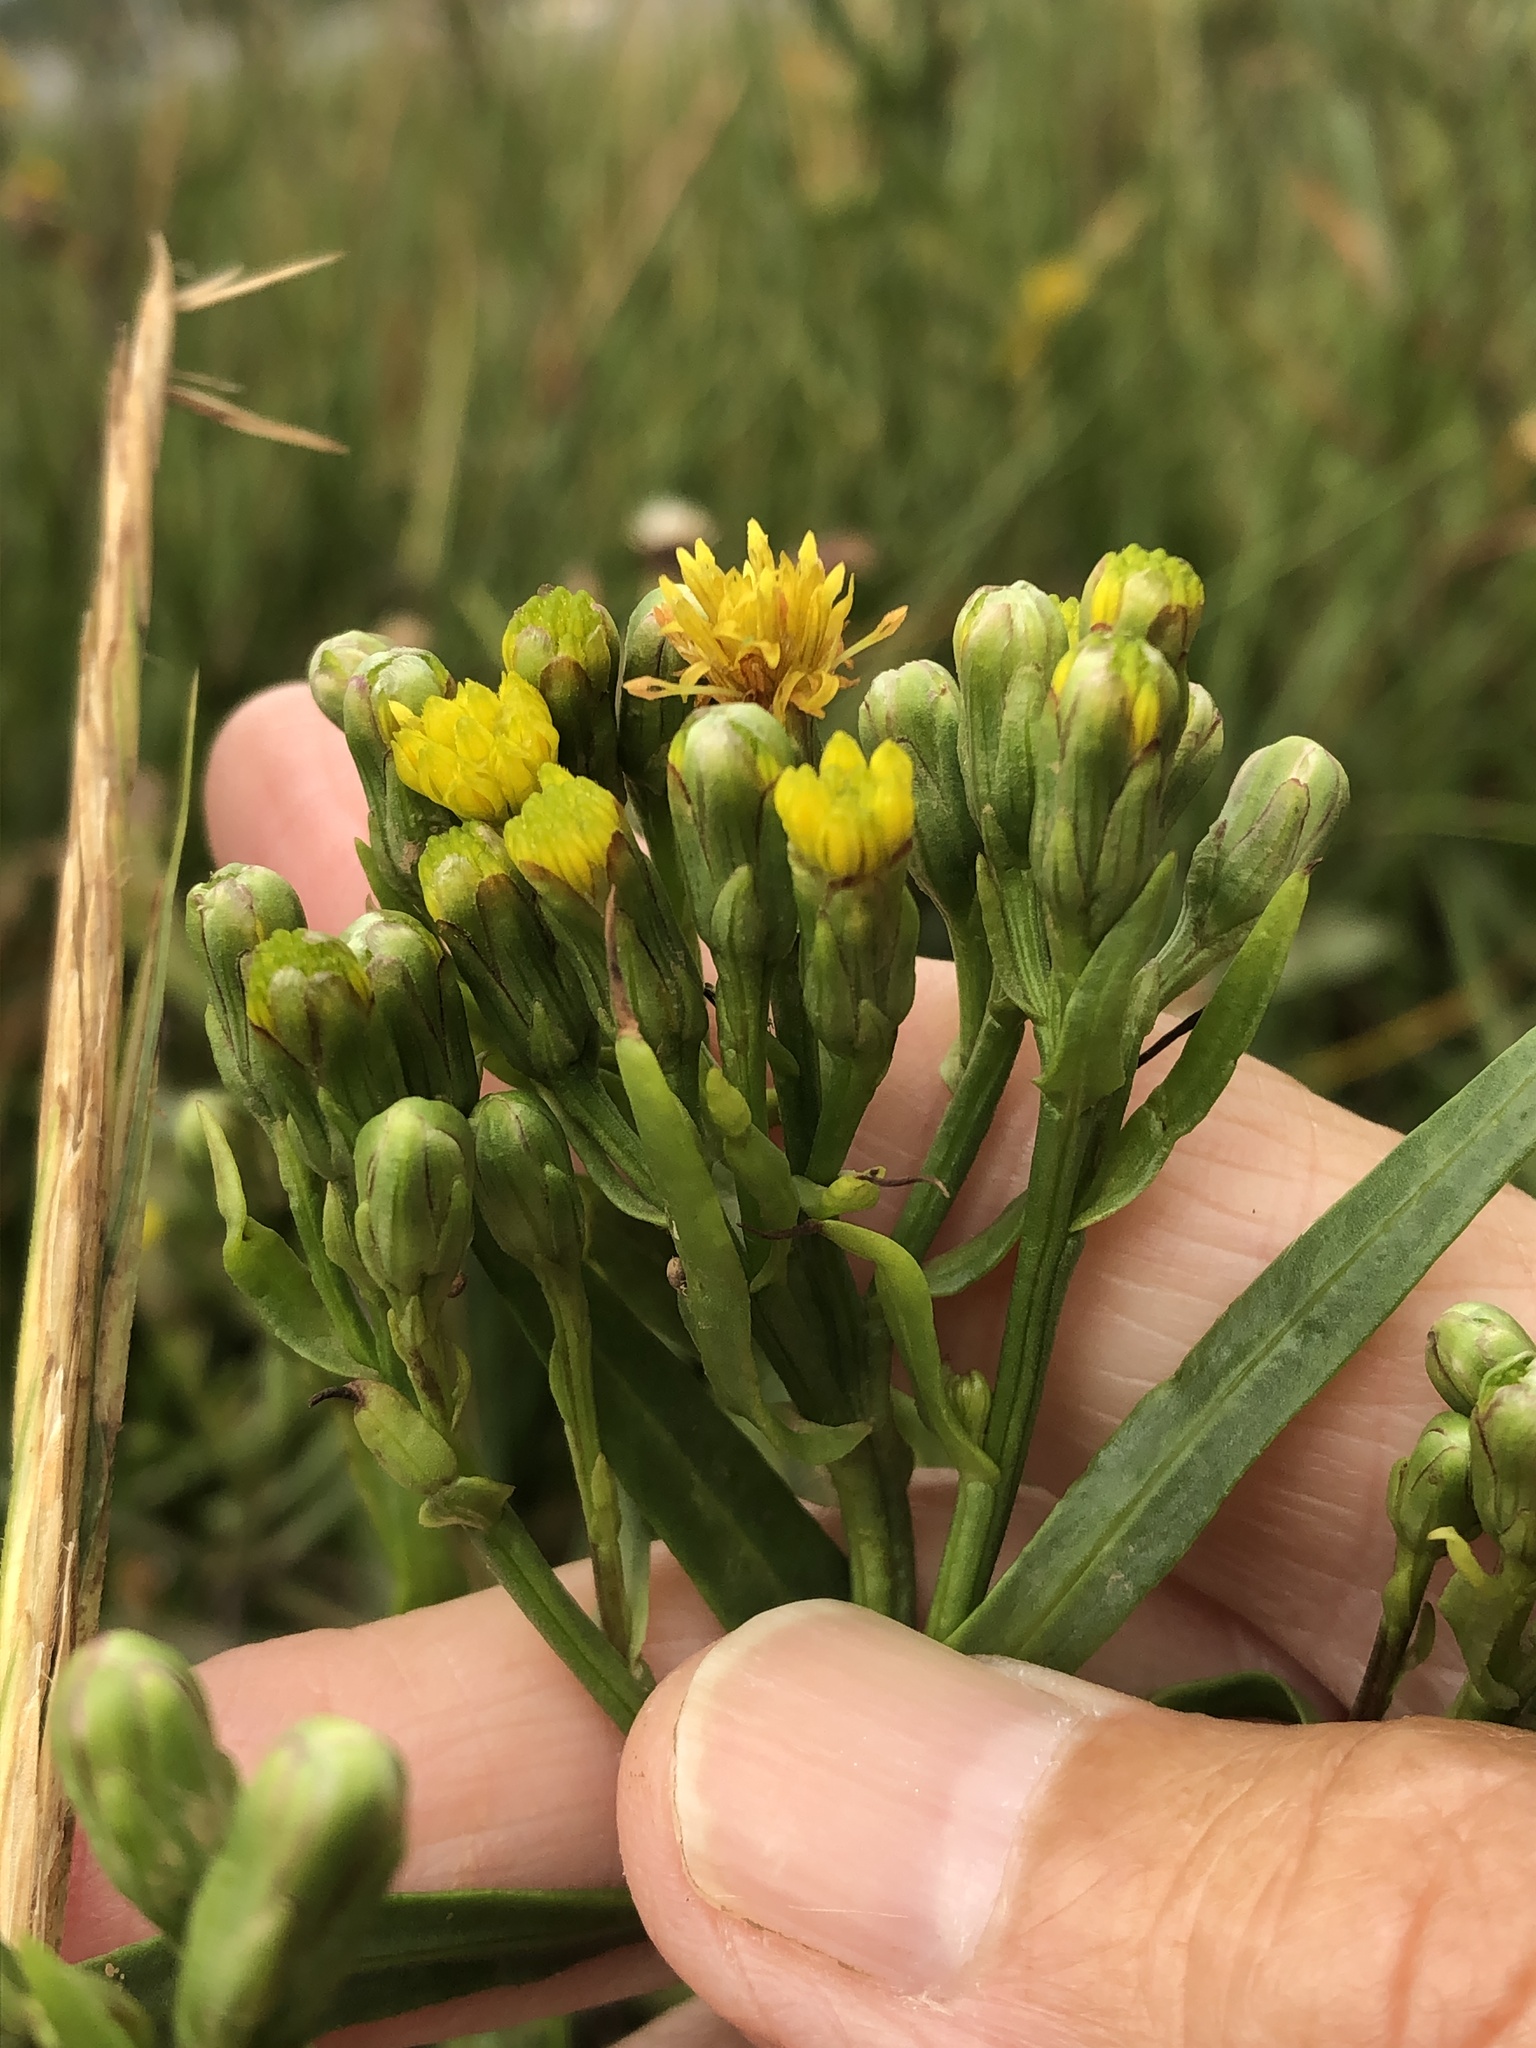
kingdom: Plantae
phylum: Tracheophyta
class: Magnoliopsida
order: Asterales
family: Asteraceae
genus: Tripolium
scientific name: Tripolium pannonicum
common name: Sea aster
